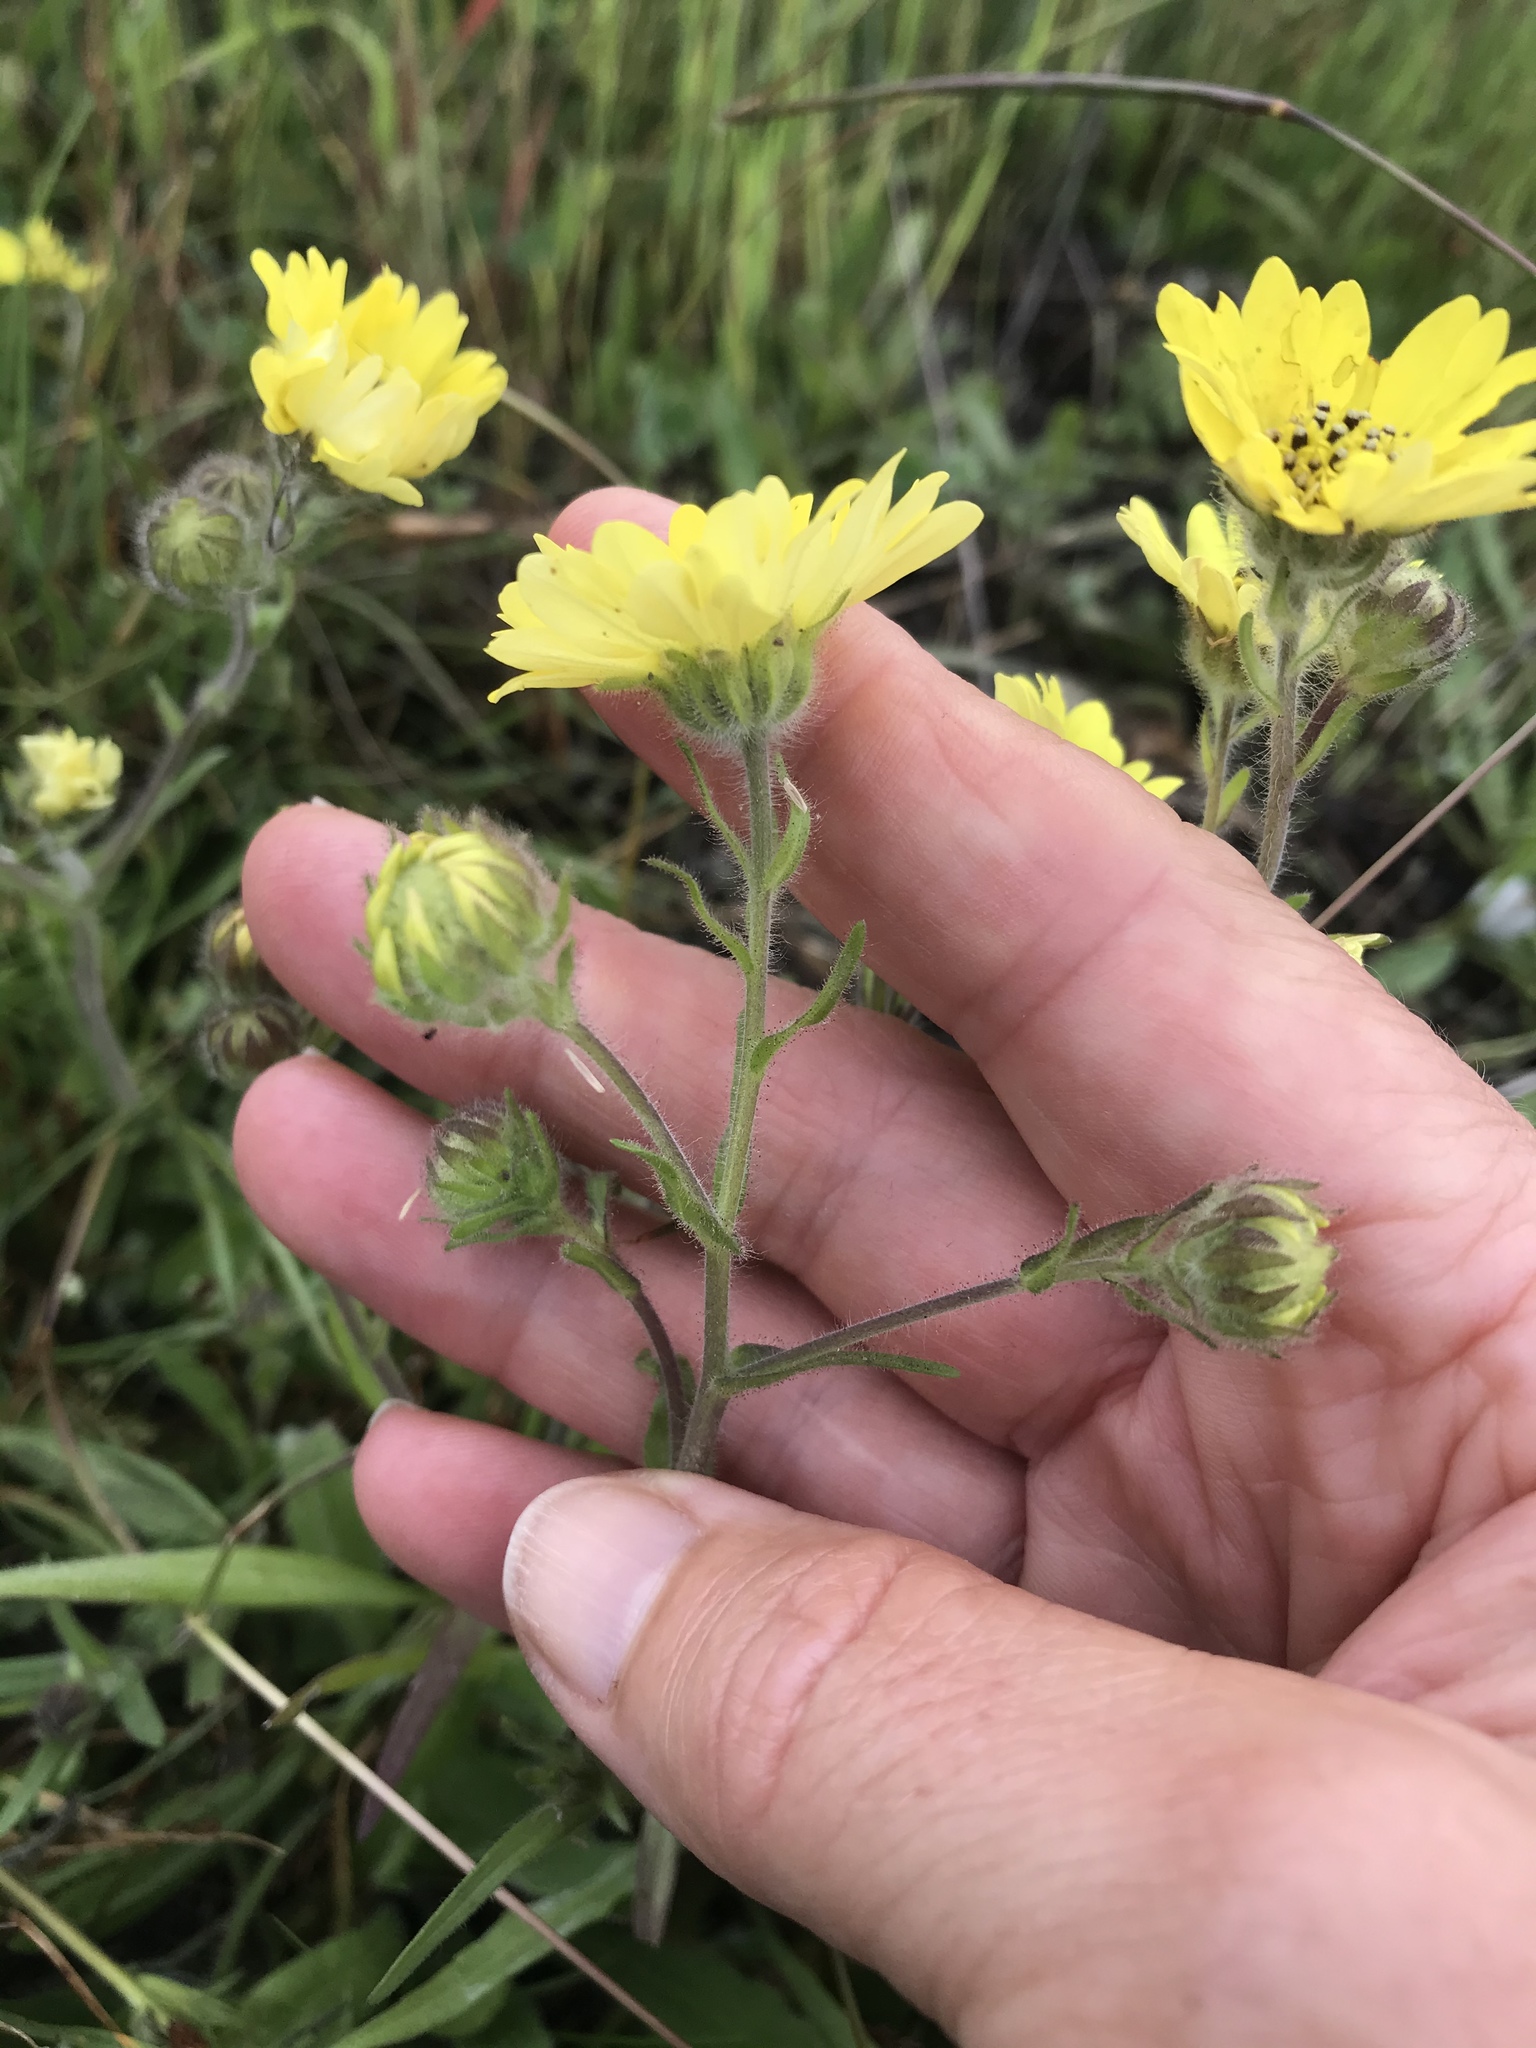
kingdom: Plantae
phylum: Tracheophyta
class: Magnoliopsida
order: Asterales
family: Asteraceae
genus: Hemizonia
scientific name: Hemizonia congesta
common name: Hayfield tarweed
